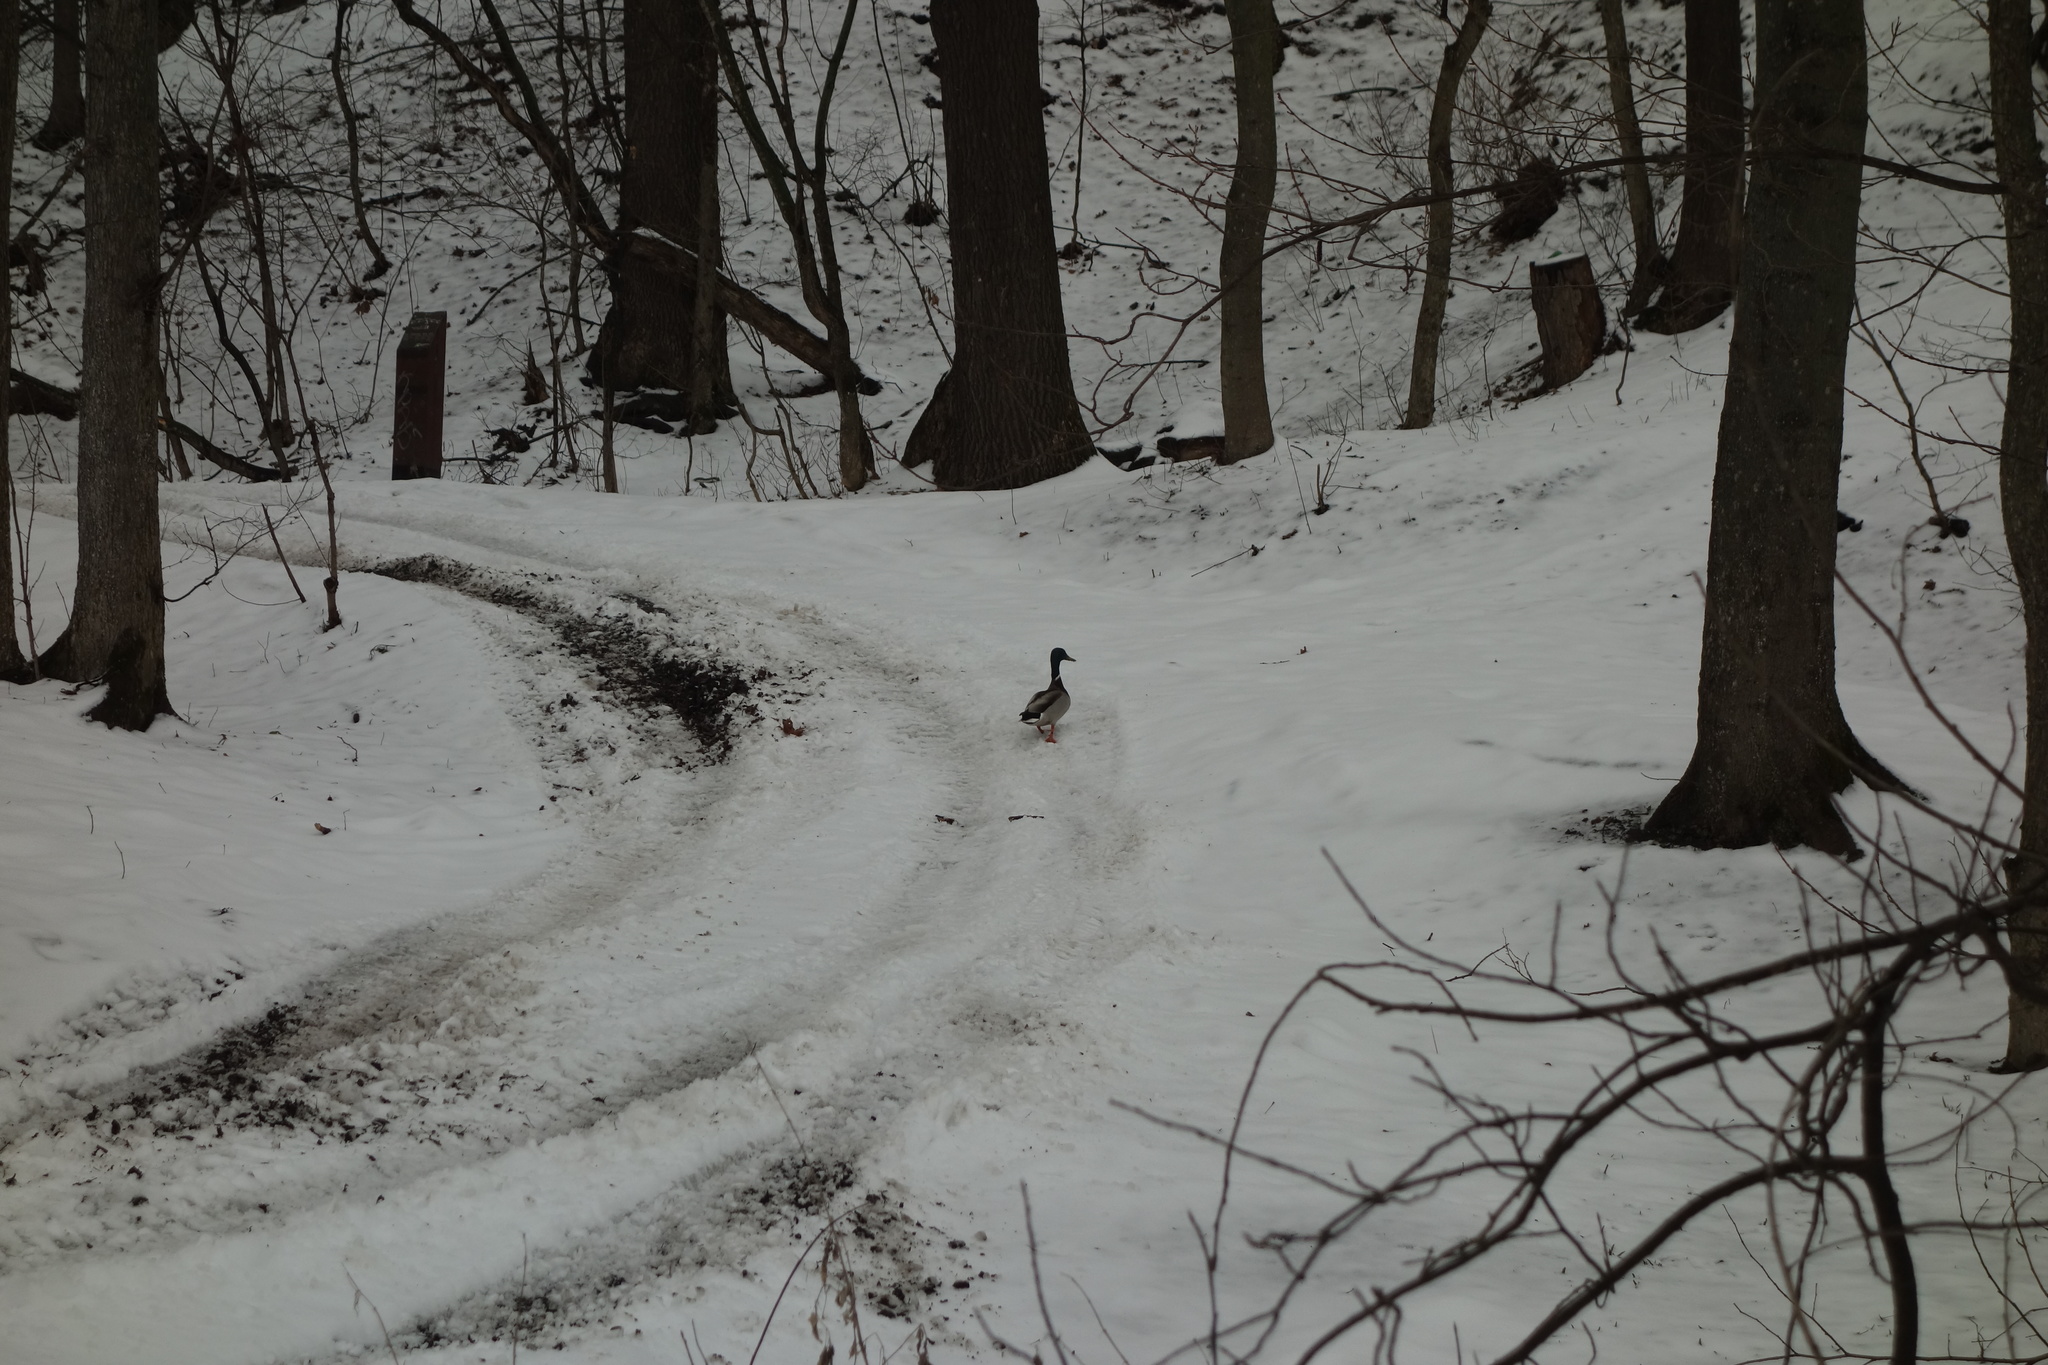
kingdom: Animalia
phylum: Chordata
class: Aves
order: Anseriformes
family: Anatidae
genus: Anas
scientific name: Anas platyrhynchos
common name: Mallard
